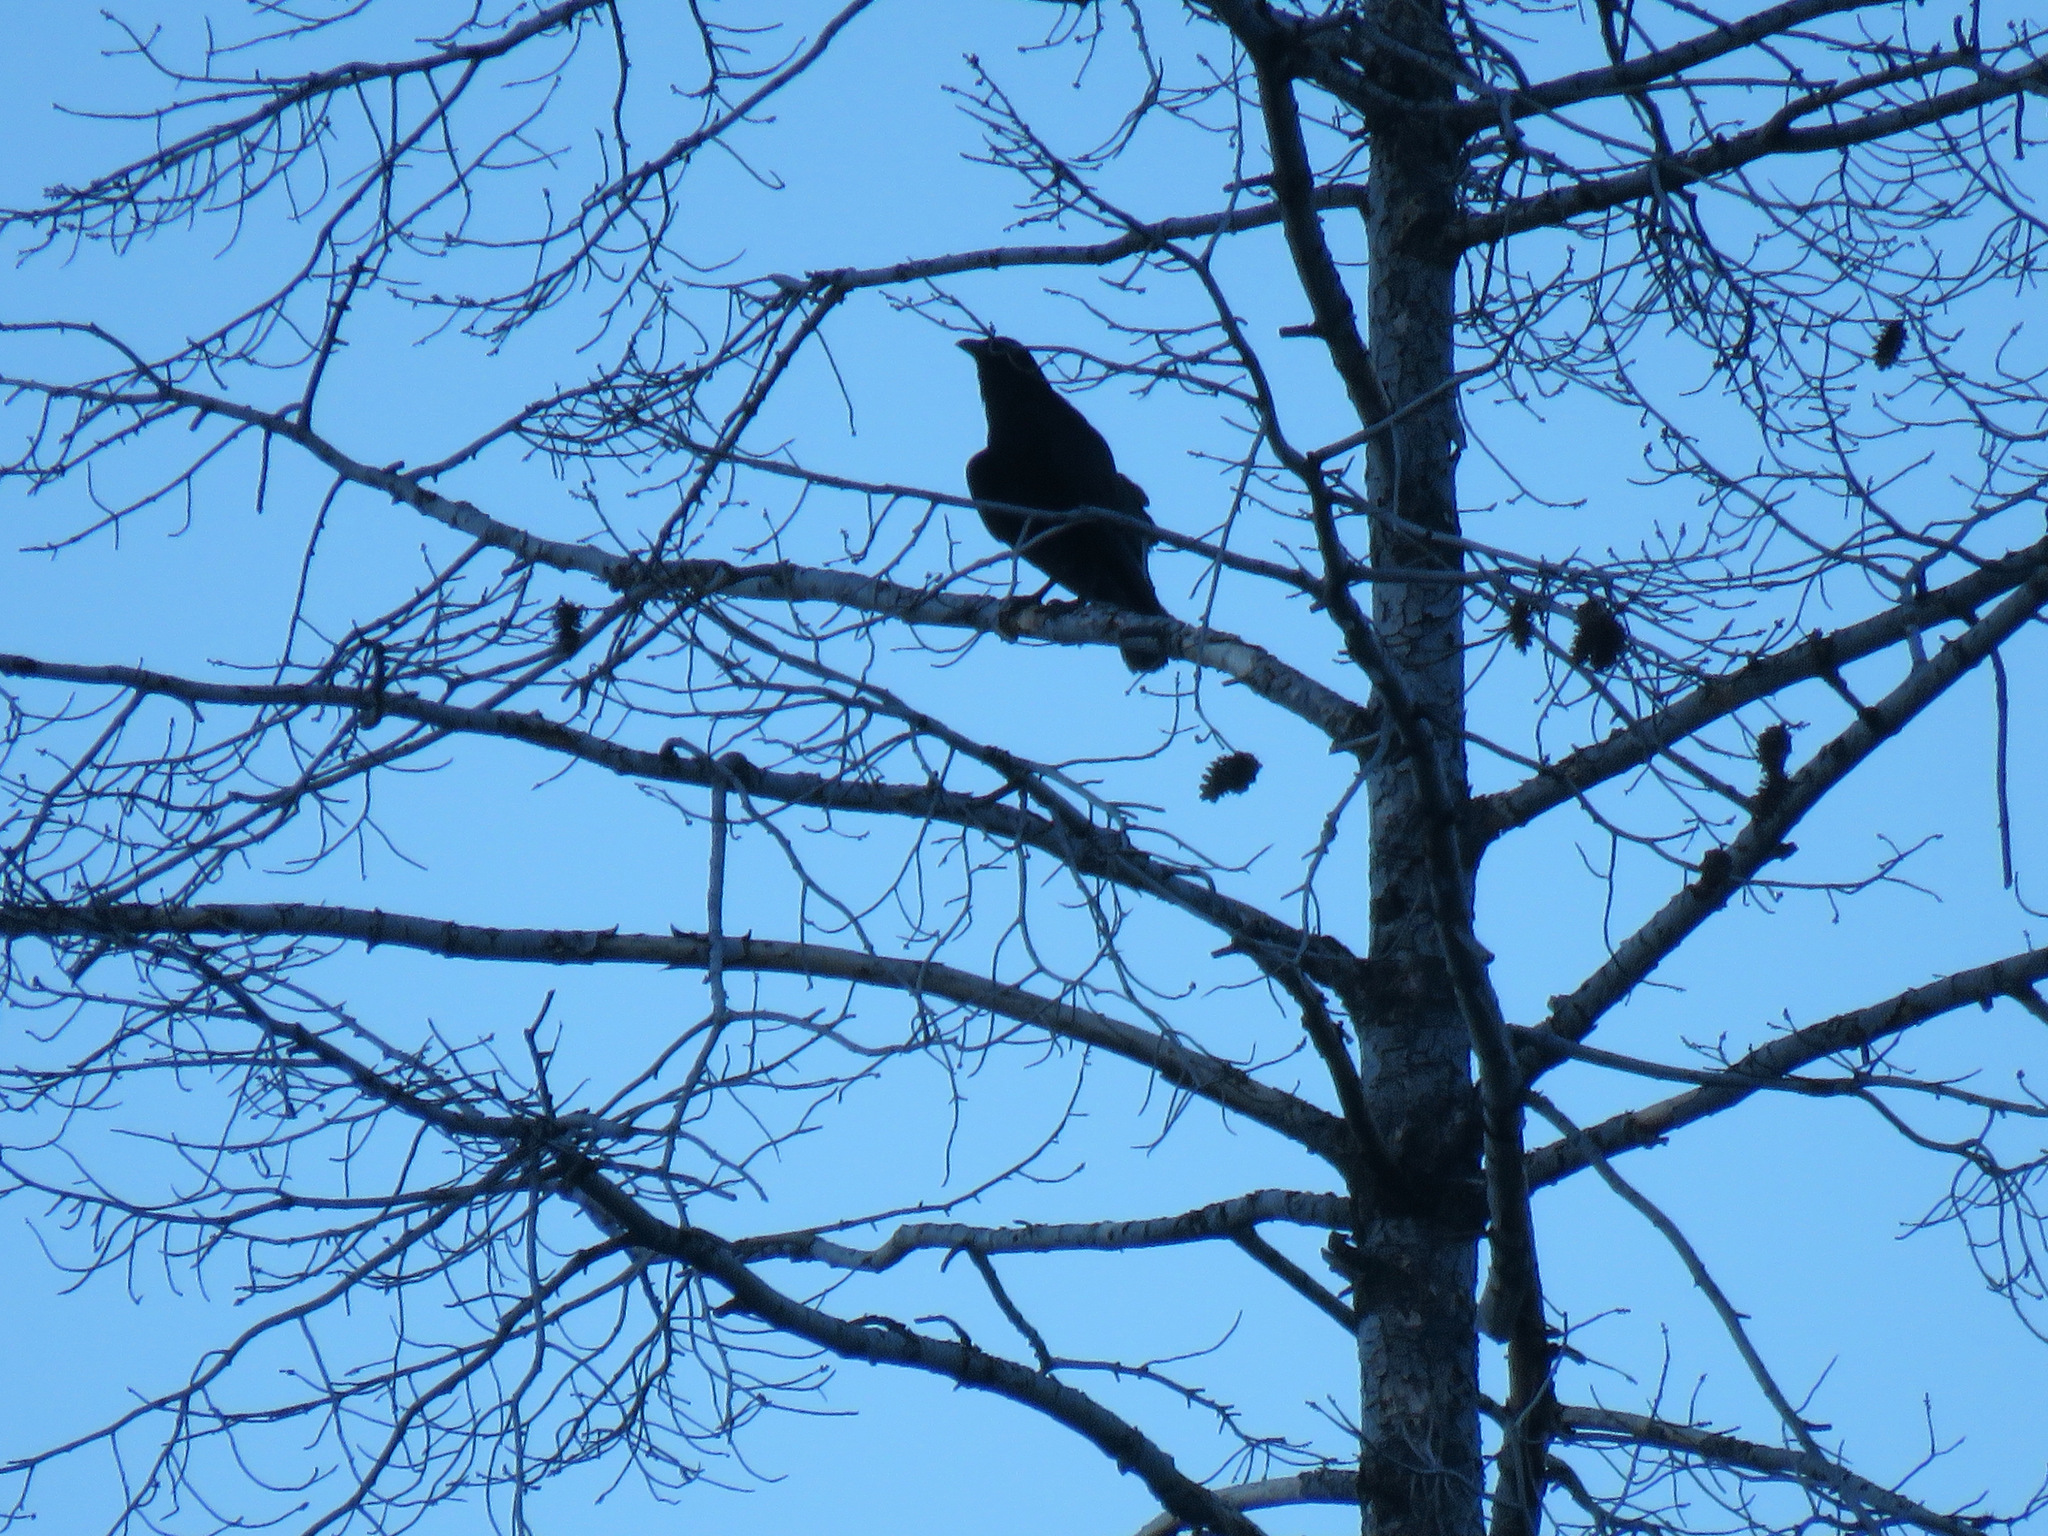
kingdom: Animalia
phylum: Chordata
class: Aves
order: Passeriformes
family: Corvidae
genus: Corvus
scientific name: Corvus brachyrhynchos
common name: American crow
